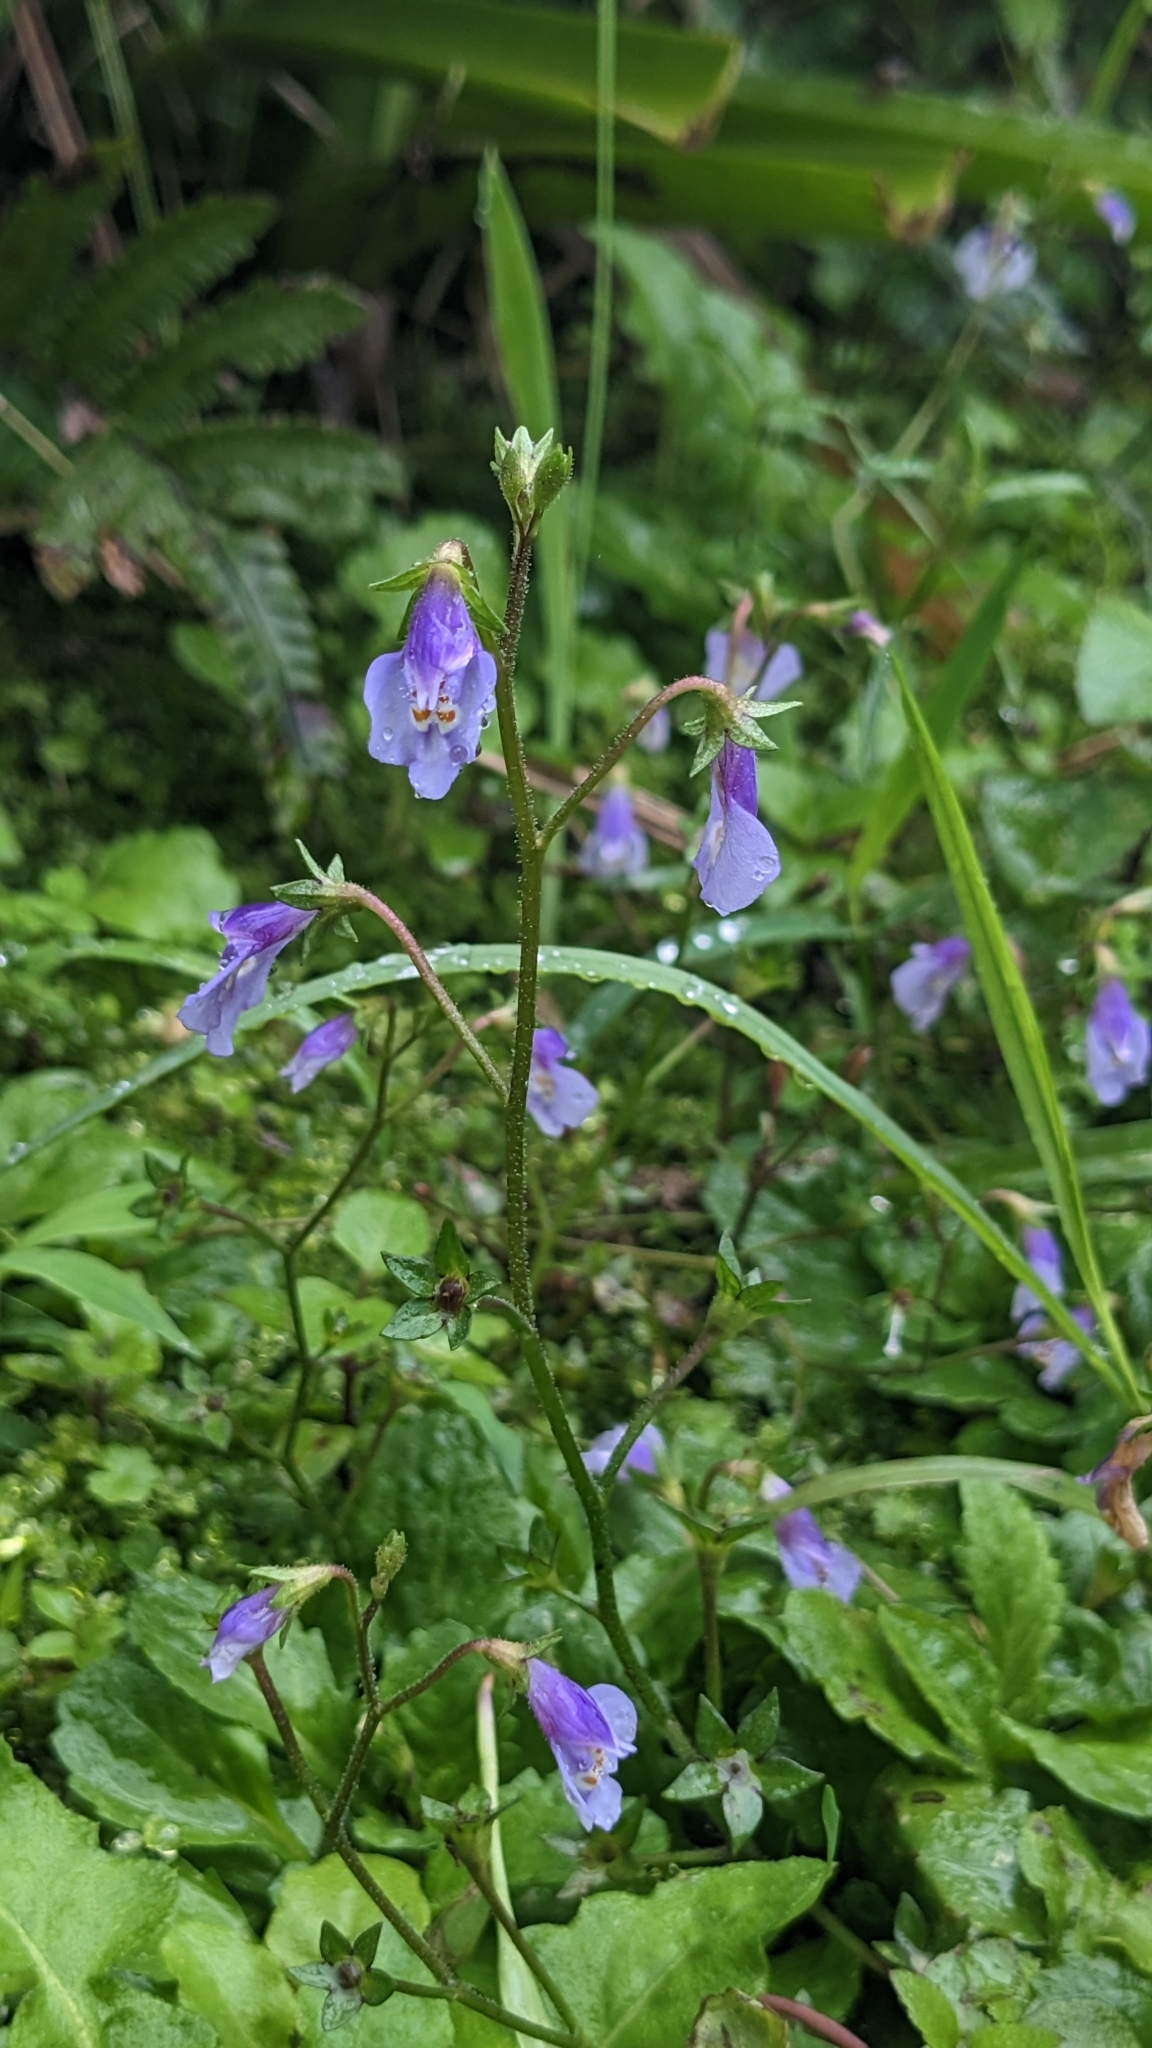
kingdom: Plantae
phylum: Tracheophyta
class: Magnoliopsida
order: Lamiales
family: Mazaceae
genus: Mazus
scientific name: Mazus pumilus
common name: Japanese mazus
